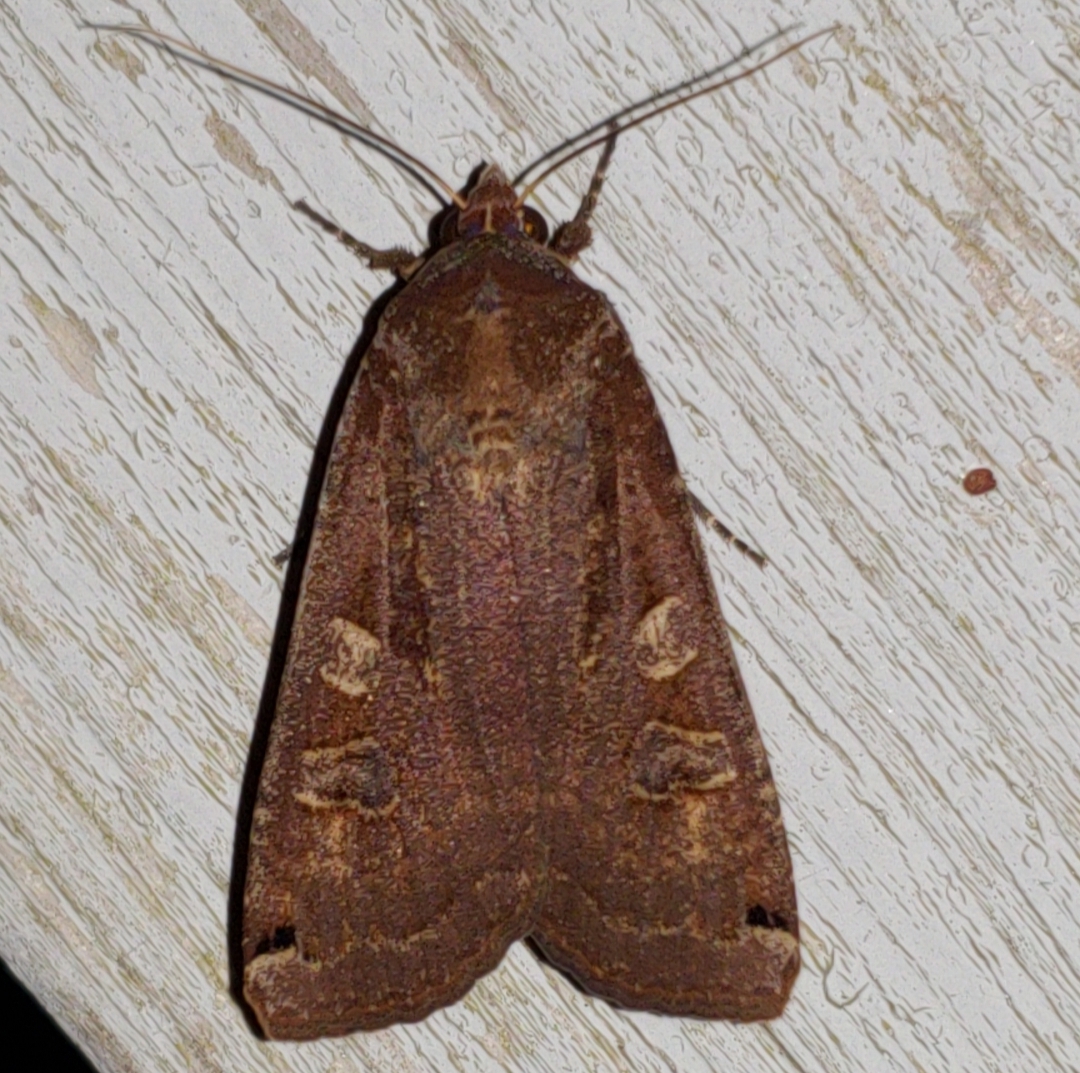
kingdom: Animalia
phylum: Arthropoda
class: Insecta
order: Lepidoptera
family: Noctuidae
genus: Noctua
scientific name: Noctua pronuba
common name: Large yellow underwing
